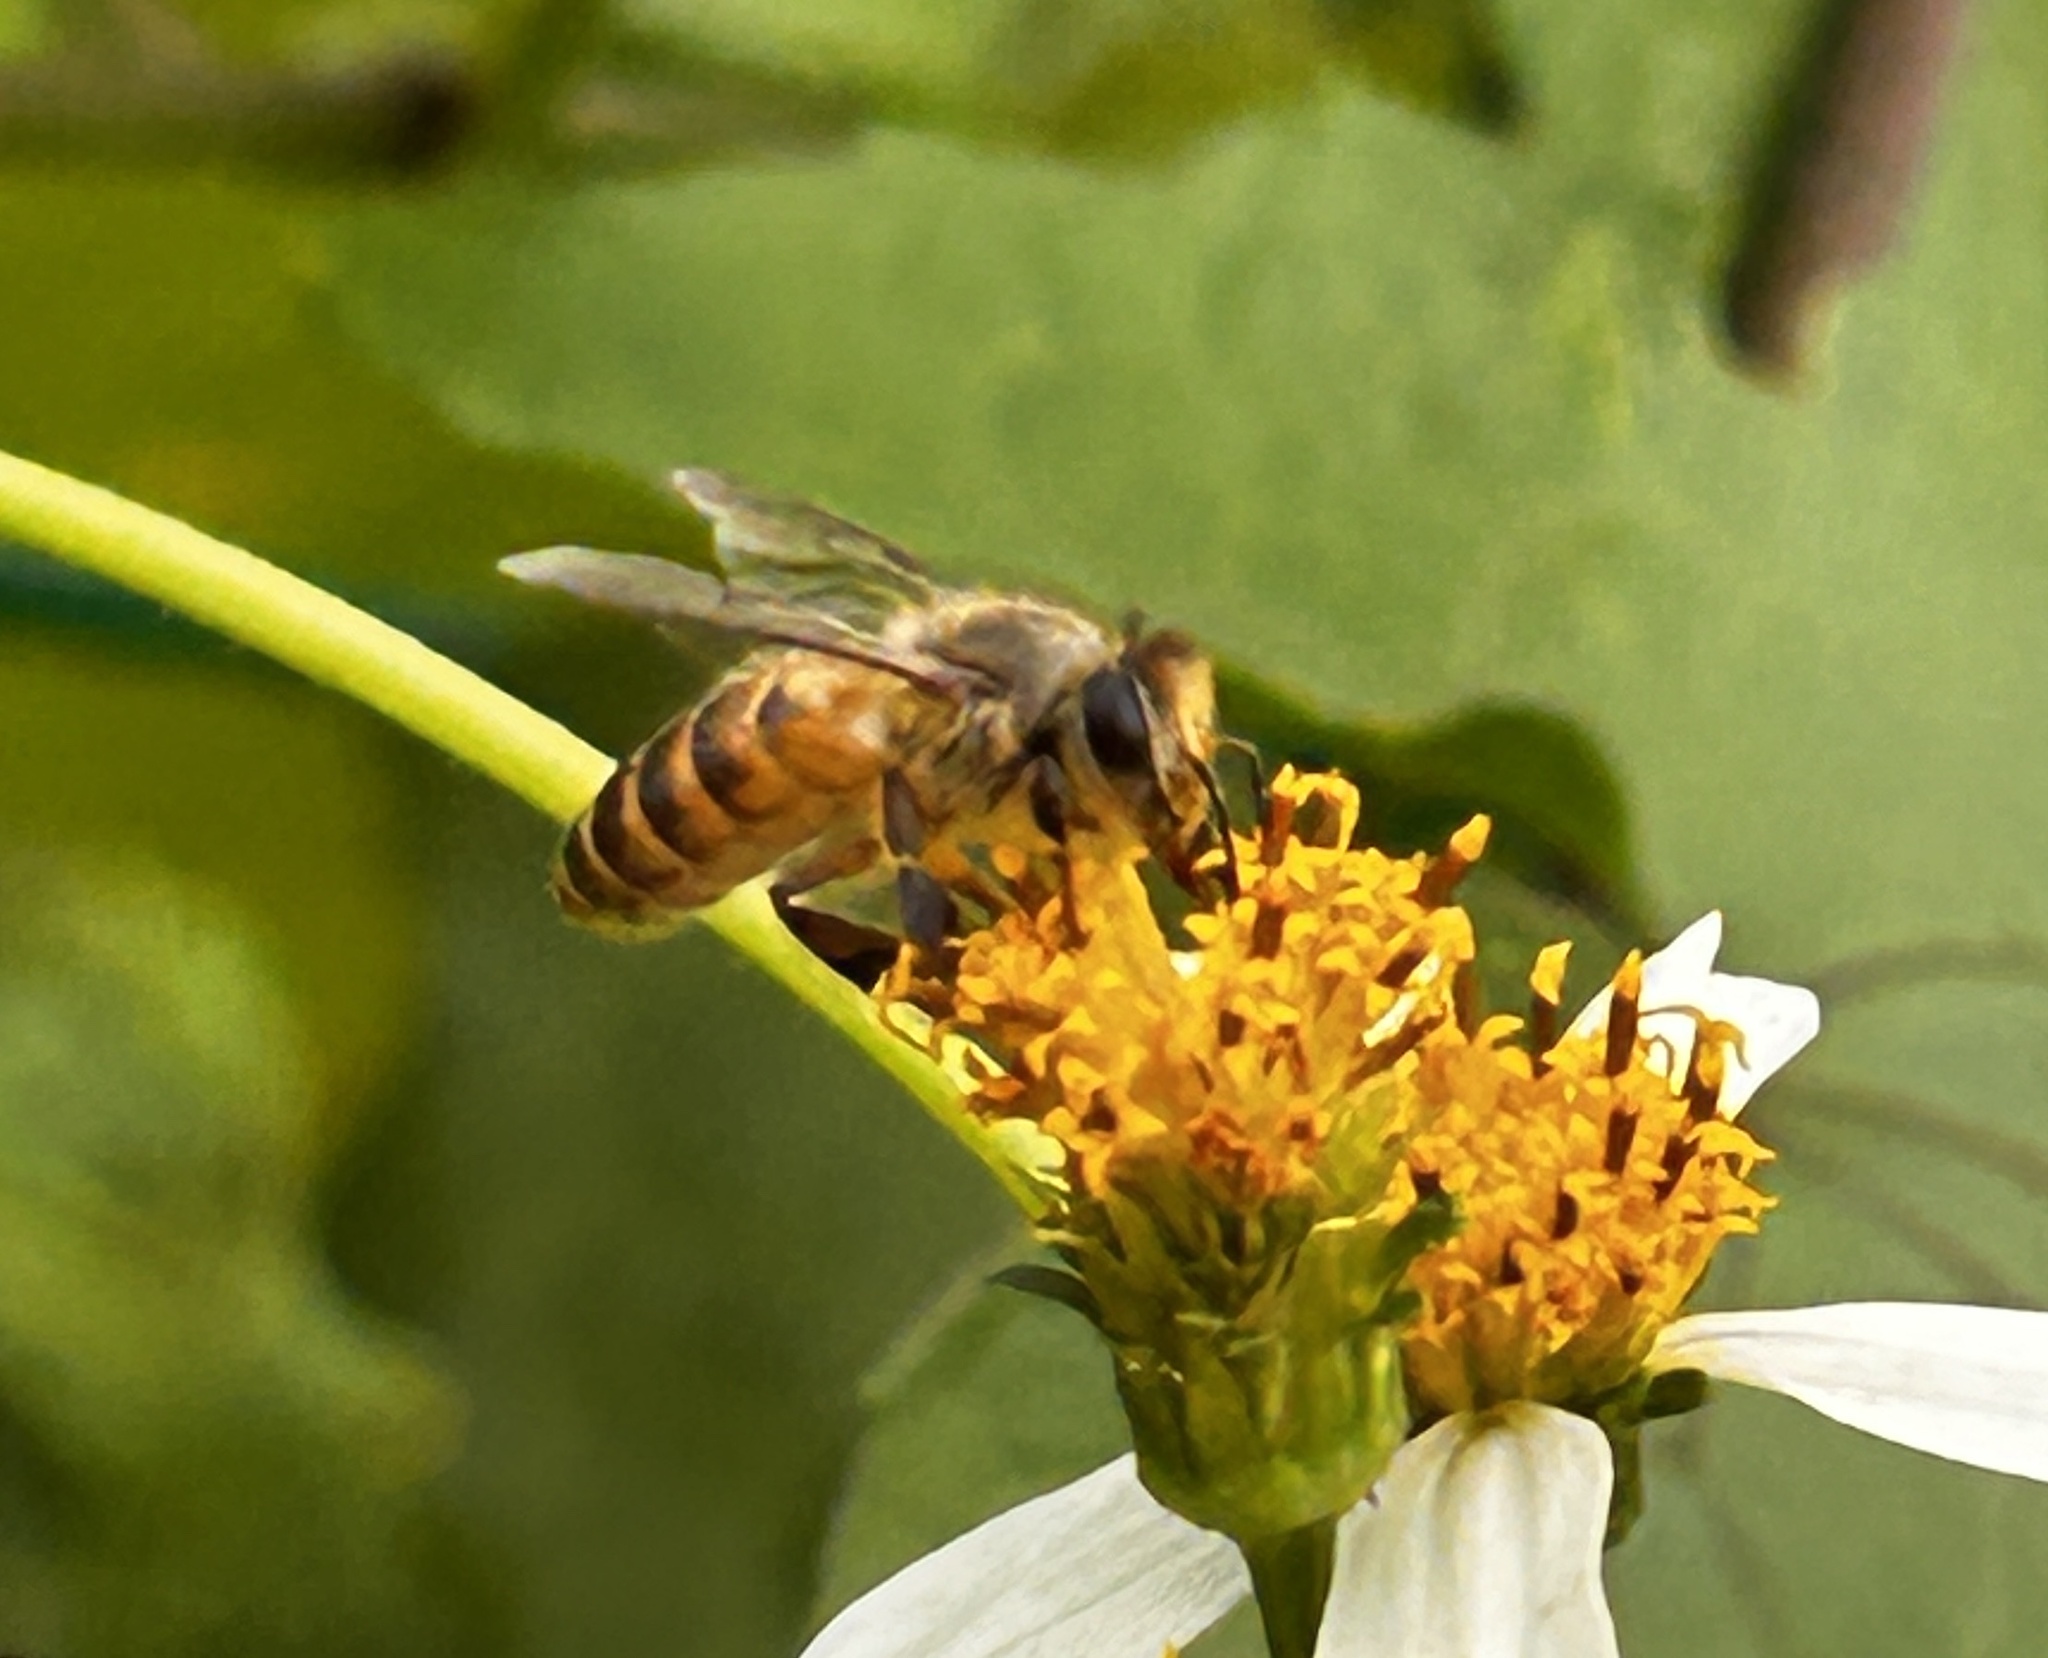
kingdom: Animalia
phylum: Arthropoda
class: Insecta
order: Hymenoptera
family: Apidae
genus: Apis
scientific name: Apis cerana
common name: Honey bee
